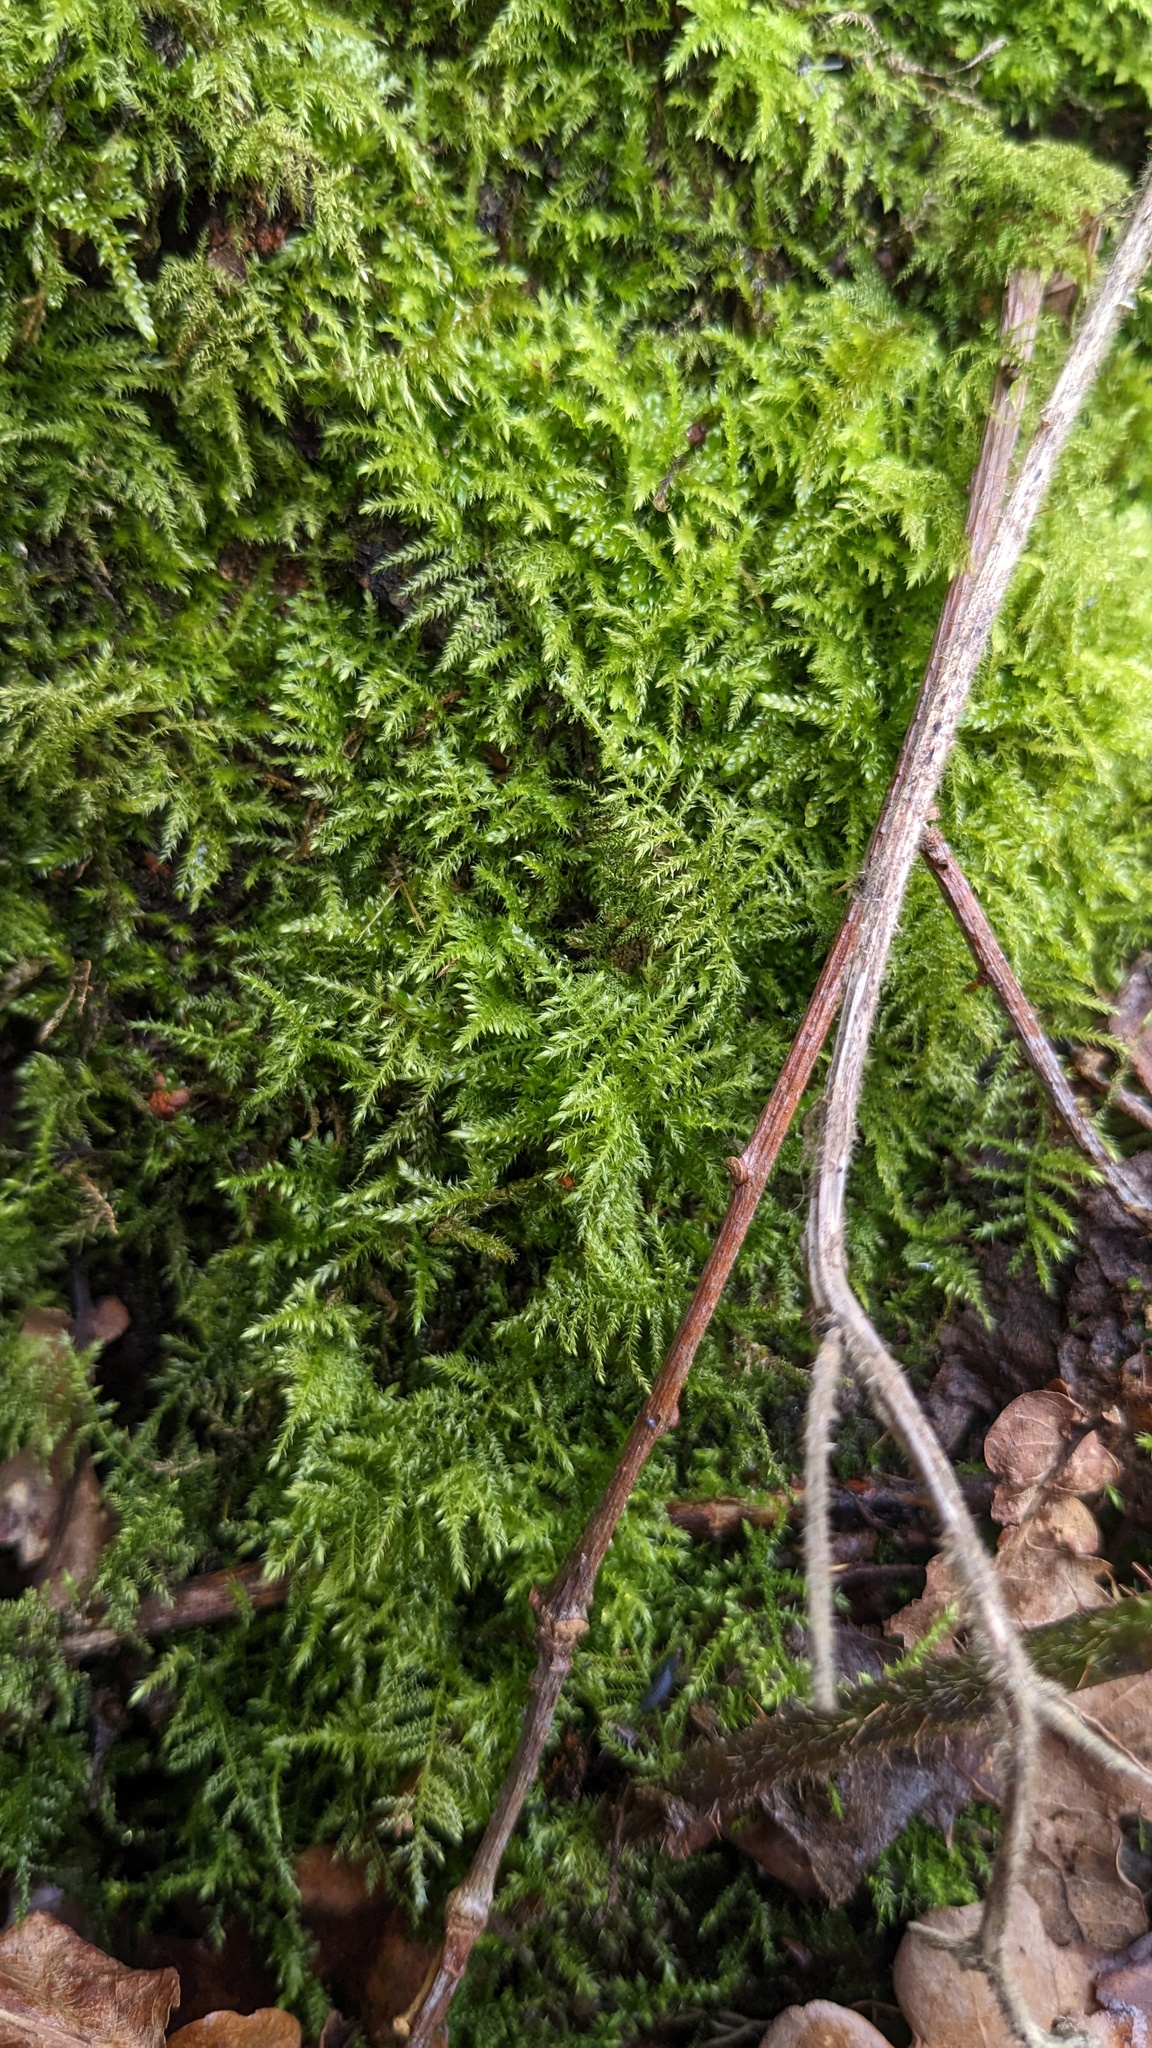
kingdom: Plantae
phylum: Bryophyta
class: Bryopsida
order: Hypnales
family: Brachytheciaceae
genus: Kindbergia
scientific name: Kindbergia praelonga
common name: Slender beaked moss
